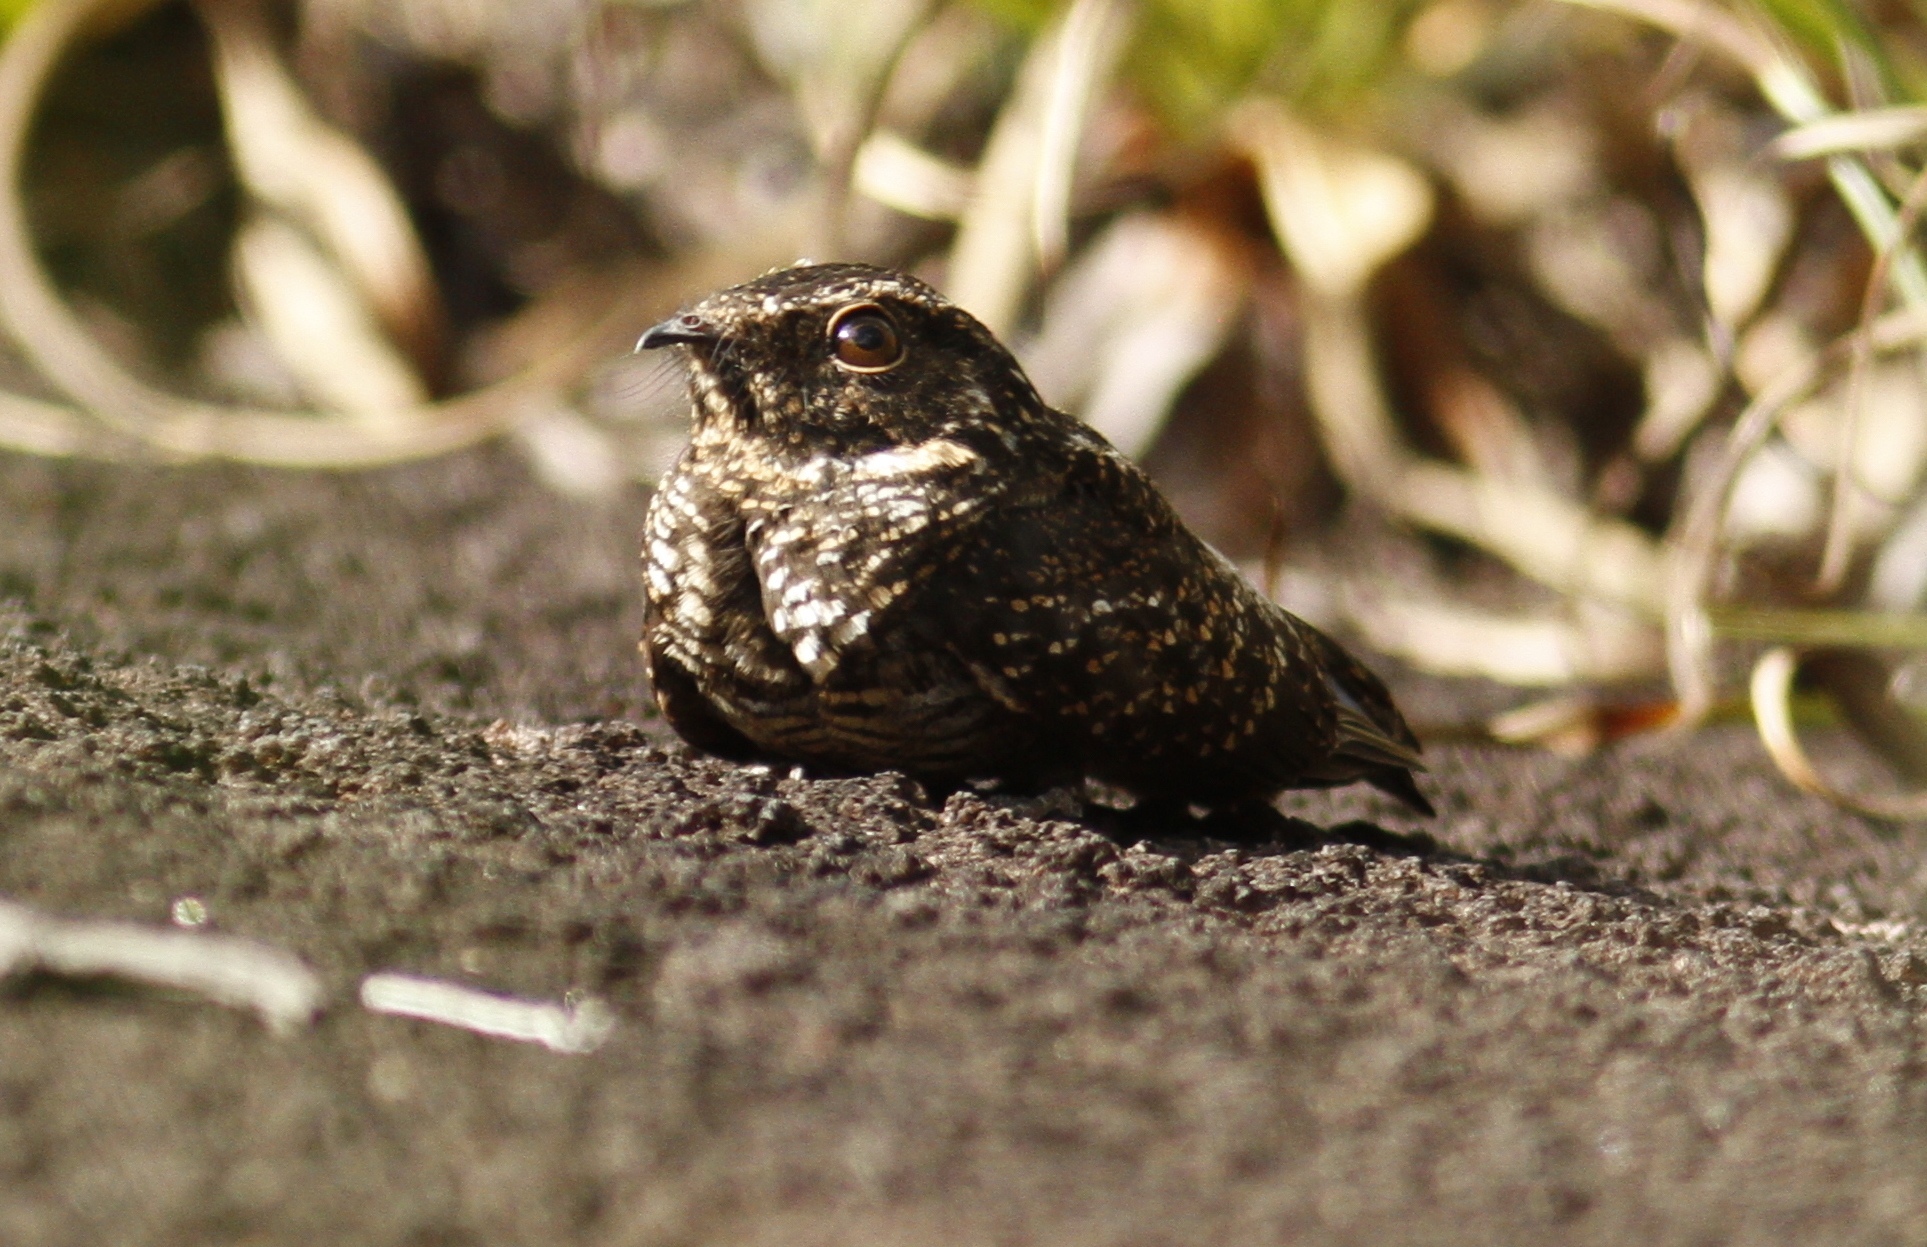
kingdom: Animalia
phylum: Chordata
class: Aves
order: Caprimulgiformes
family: Caprimulgidae
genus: Nyctipolus
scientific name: Nyctipolus nigrescens
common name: Blackish nightjar
